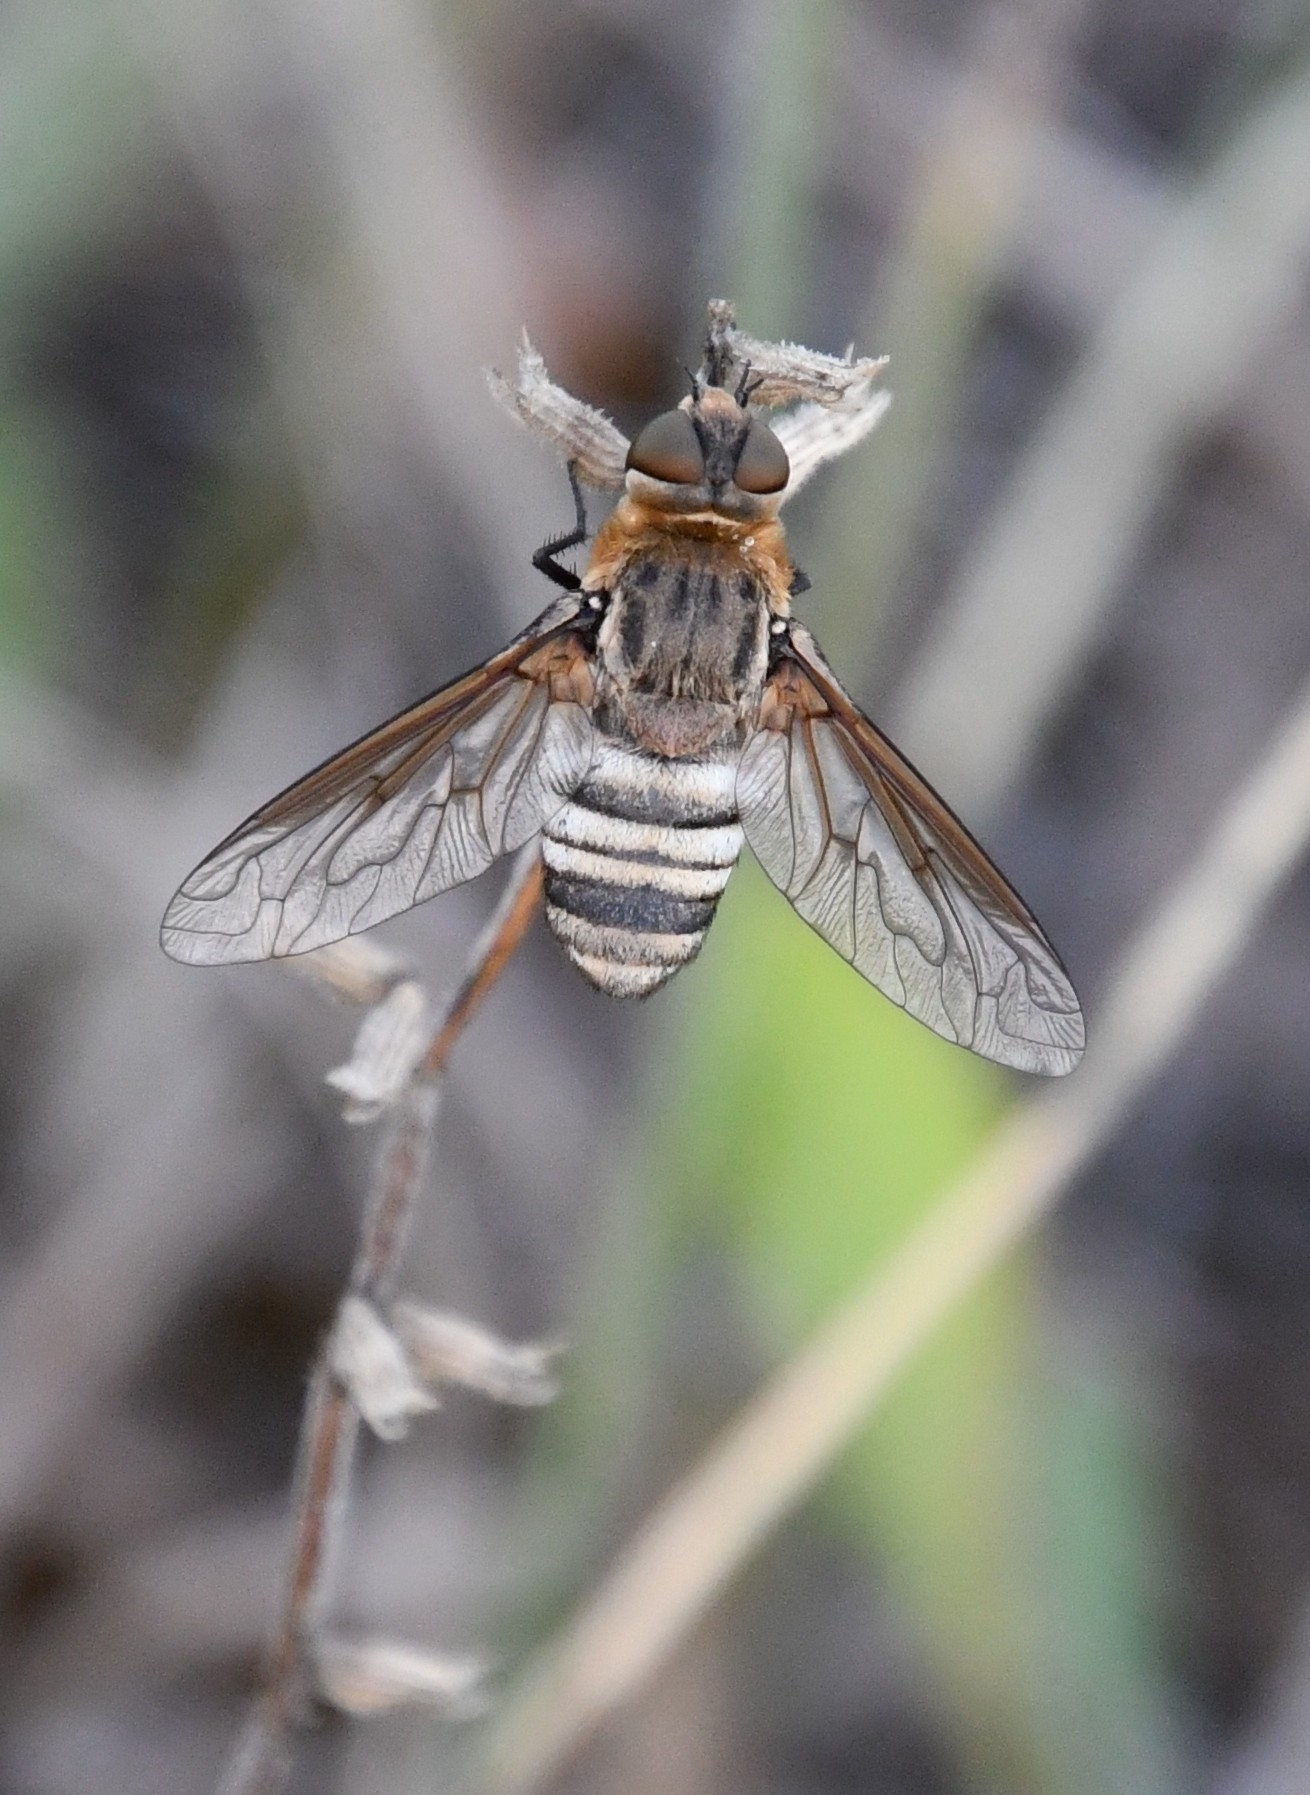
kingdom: Animalia
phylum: Arthropoda
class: Insecta
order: Diptera
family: Bombyliidae
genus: Defilippia
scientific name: Defilippia minos
